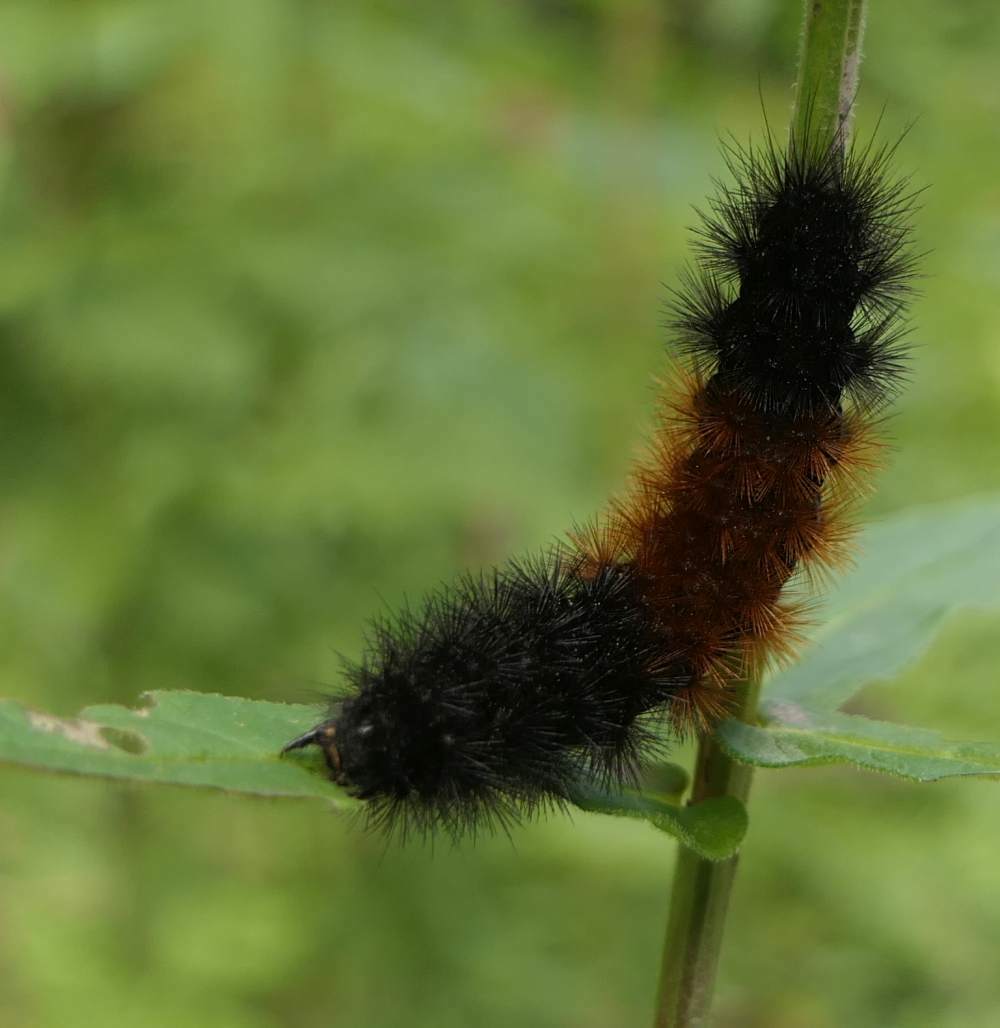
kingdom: Animalia
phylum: Arthropoda
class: Insecta
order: Lepidoptera
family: Erebidae
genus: Pyrrharctia
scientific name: Pyrrharctia isabella
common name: Isabella tiger moth
